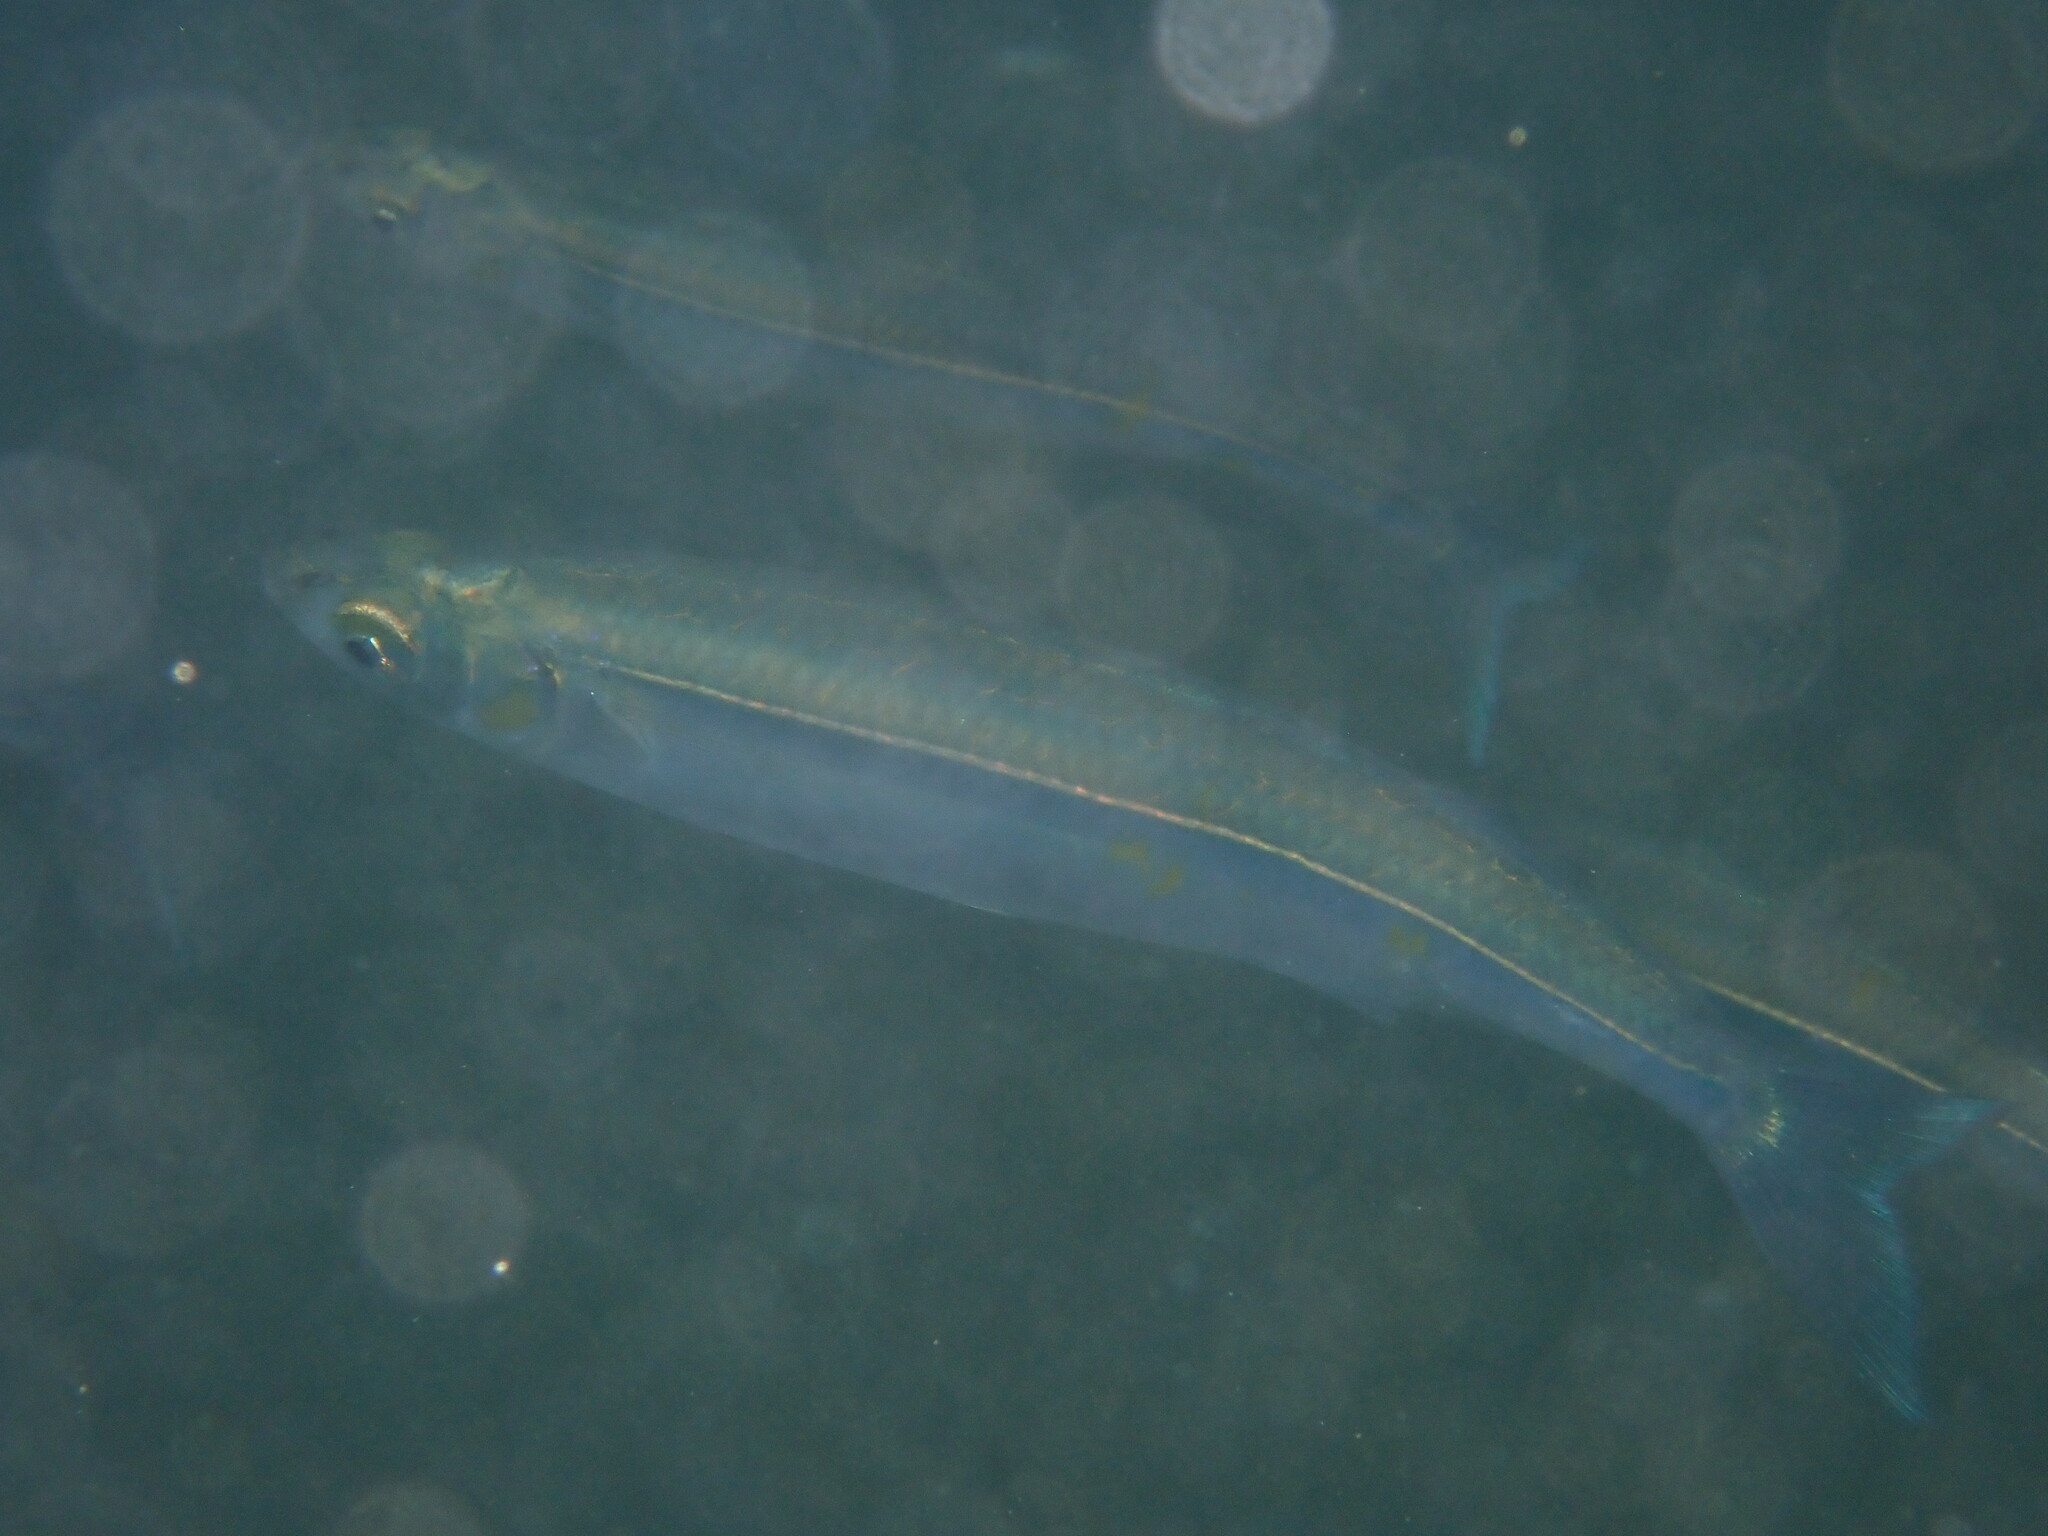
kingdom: Animalia
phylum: Chordata
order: Atheriniformes
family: Atherinopsidae
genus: Atherinops
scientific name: Atherinops affinis
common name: Topsmelt
